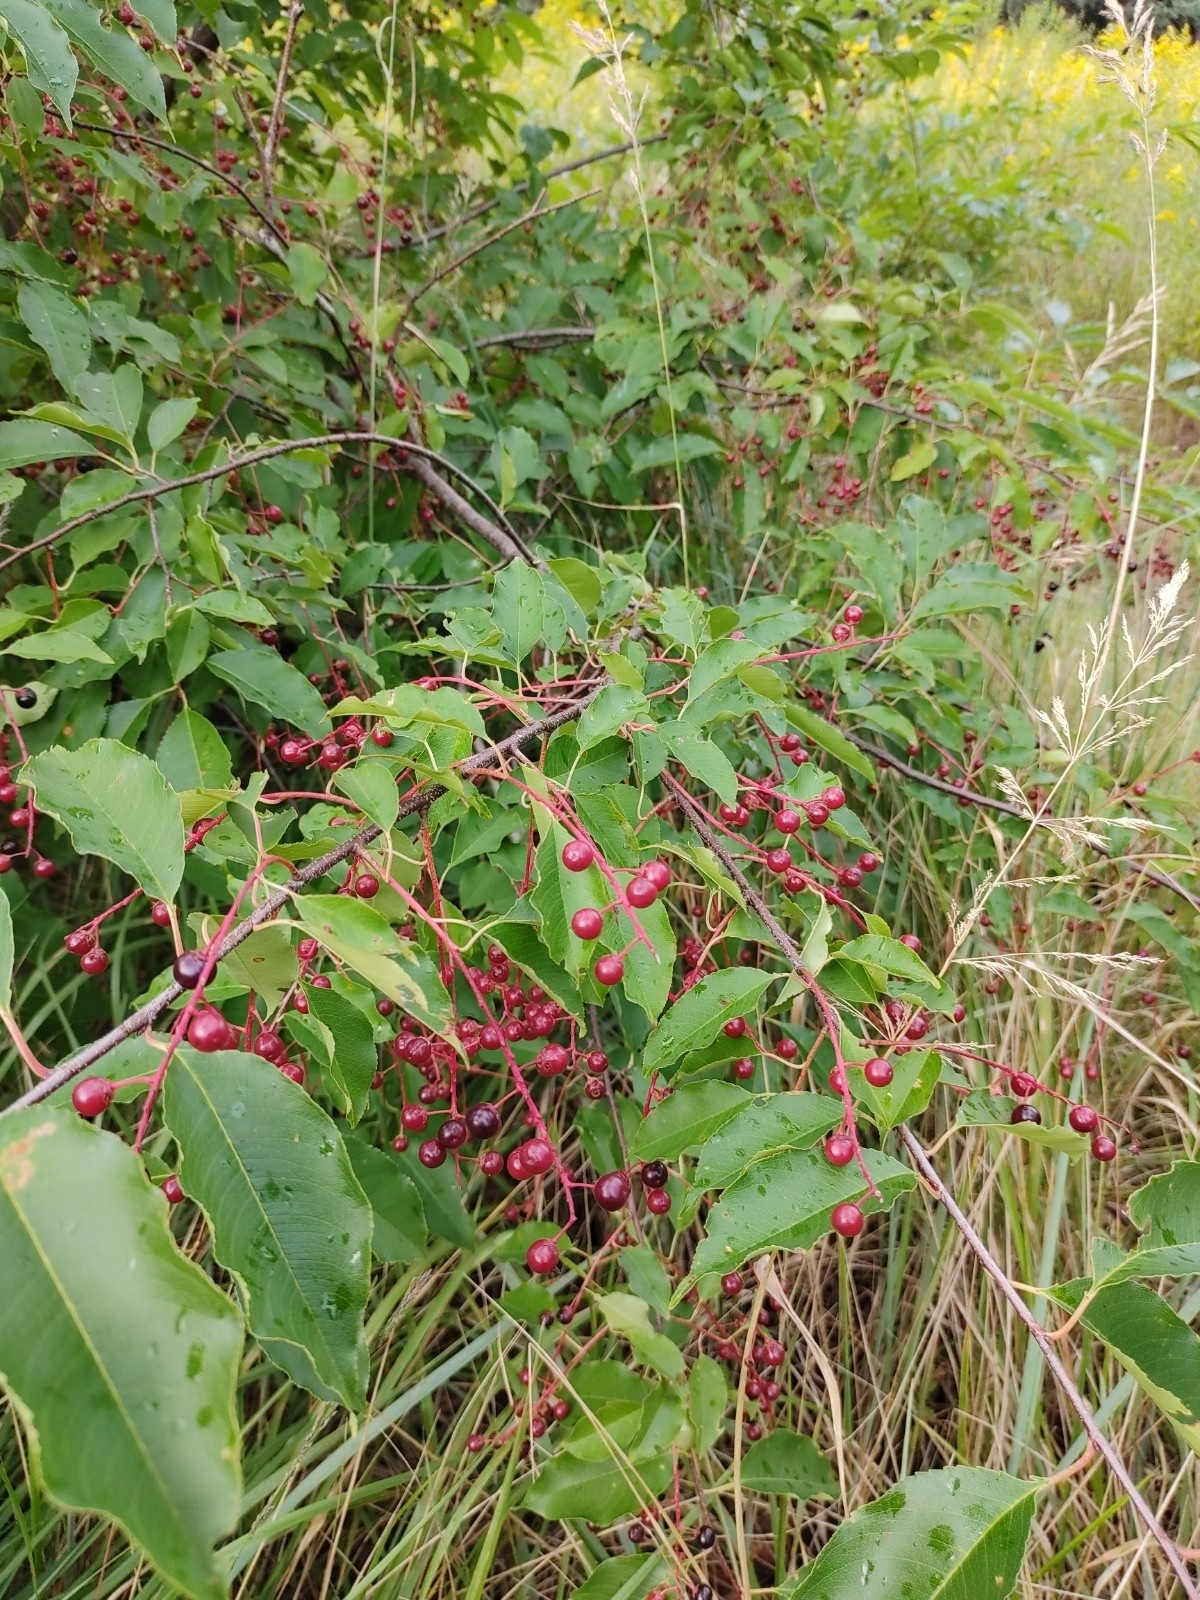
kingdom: Plantae
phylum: Tracheophyta
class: Magnoliopsida
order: Rosales
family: Rosaceae
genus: Prunus
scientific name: Prunus serotina
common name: Black cherry
